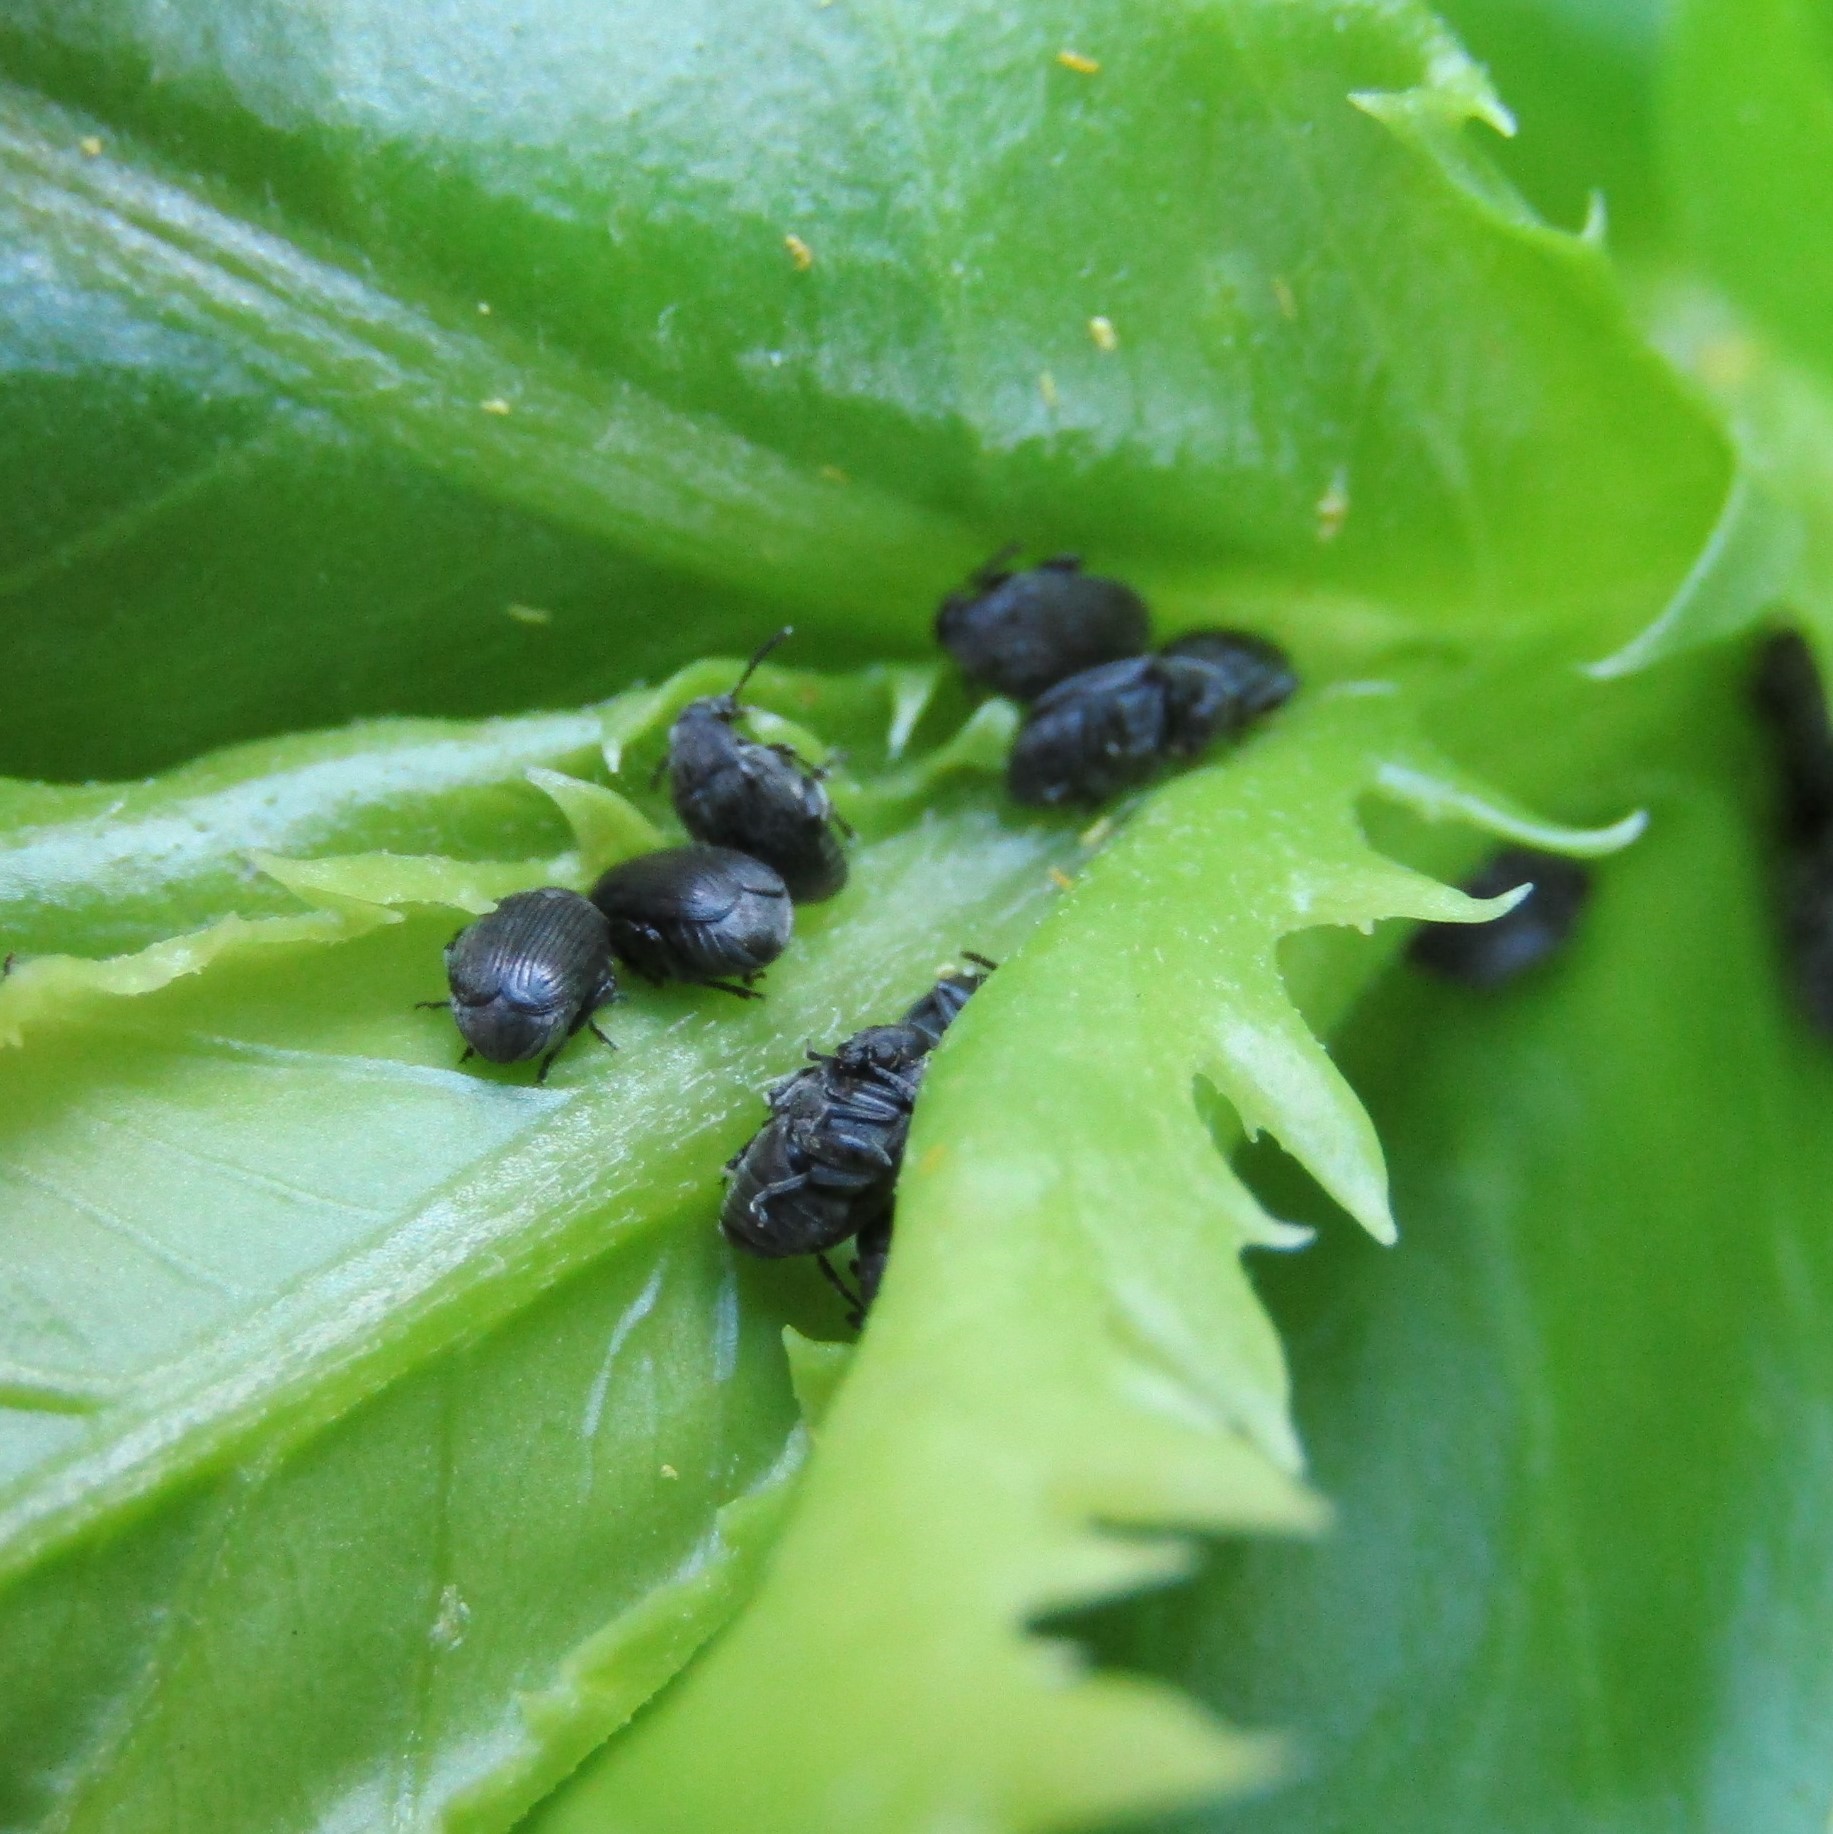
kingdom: Animalia
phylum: Arthropoda
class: Insecta
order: Coleoptera
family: Chrysomelidae
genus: Bruchidius
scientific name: Bruchidius villosus
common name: Scotch broom bruchid
